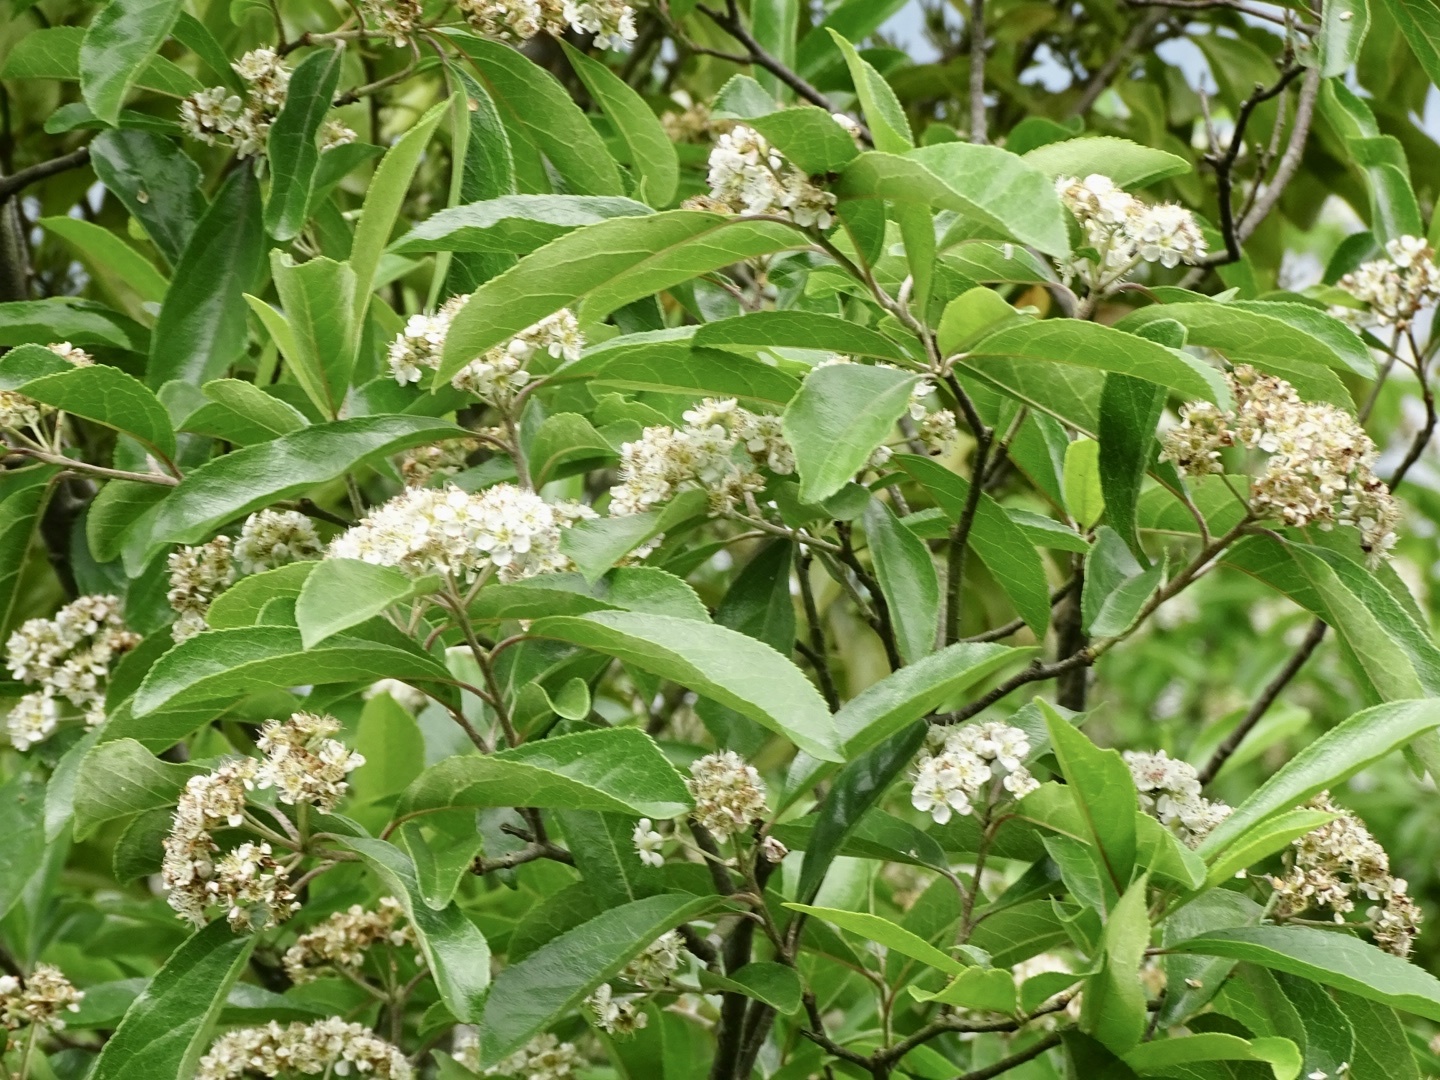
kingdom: Plantae
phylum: Tracheophyta
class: Magnoliopsida
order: Rosales
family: Rosaceae
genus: Pyrus
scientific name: Pyrus calleryana
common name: Callery pear
